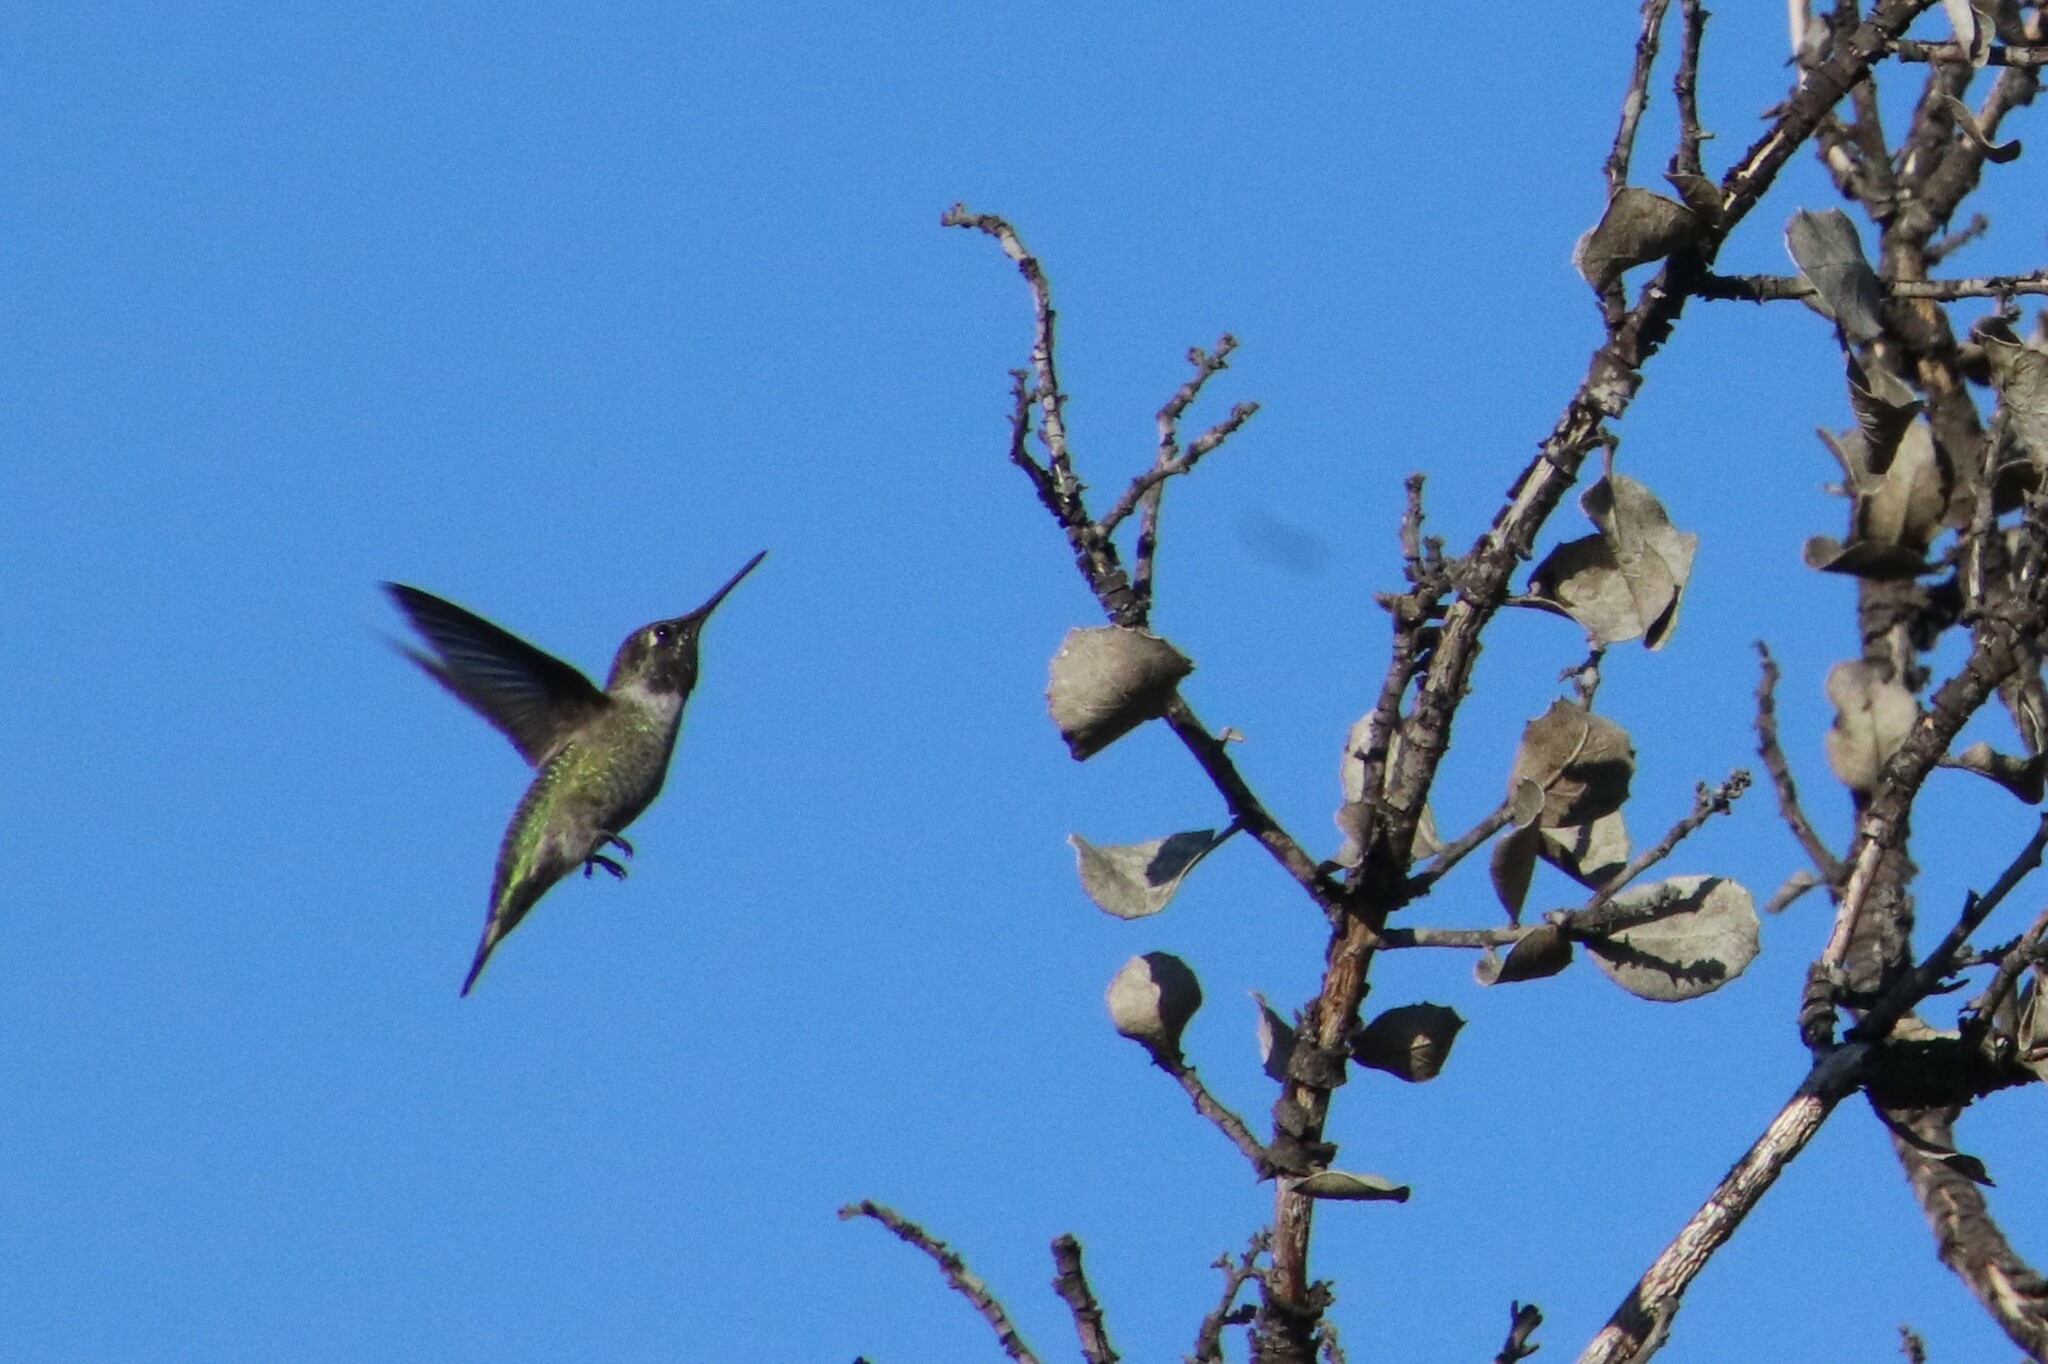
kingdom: Animalia
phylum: Chordata
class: Aves
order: Apodiformes
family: Trochilidae
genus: Calypte
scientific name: Calypte anna
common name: Anna's hummingbird
